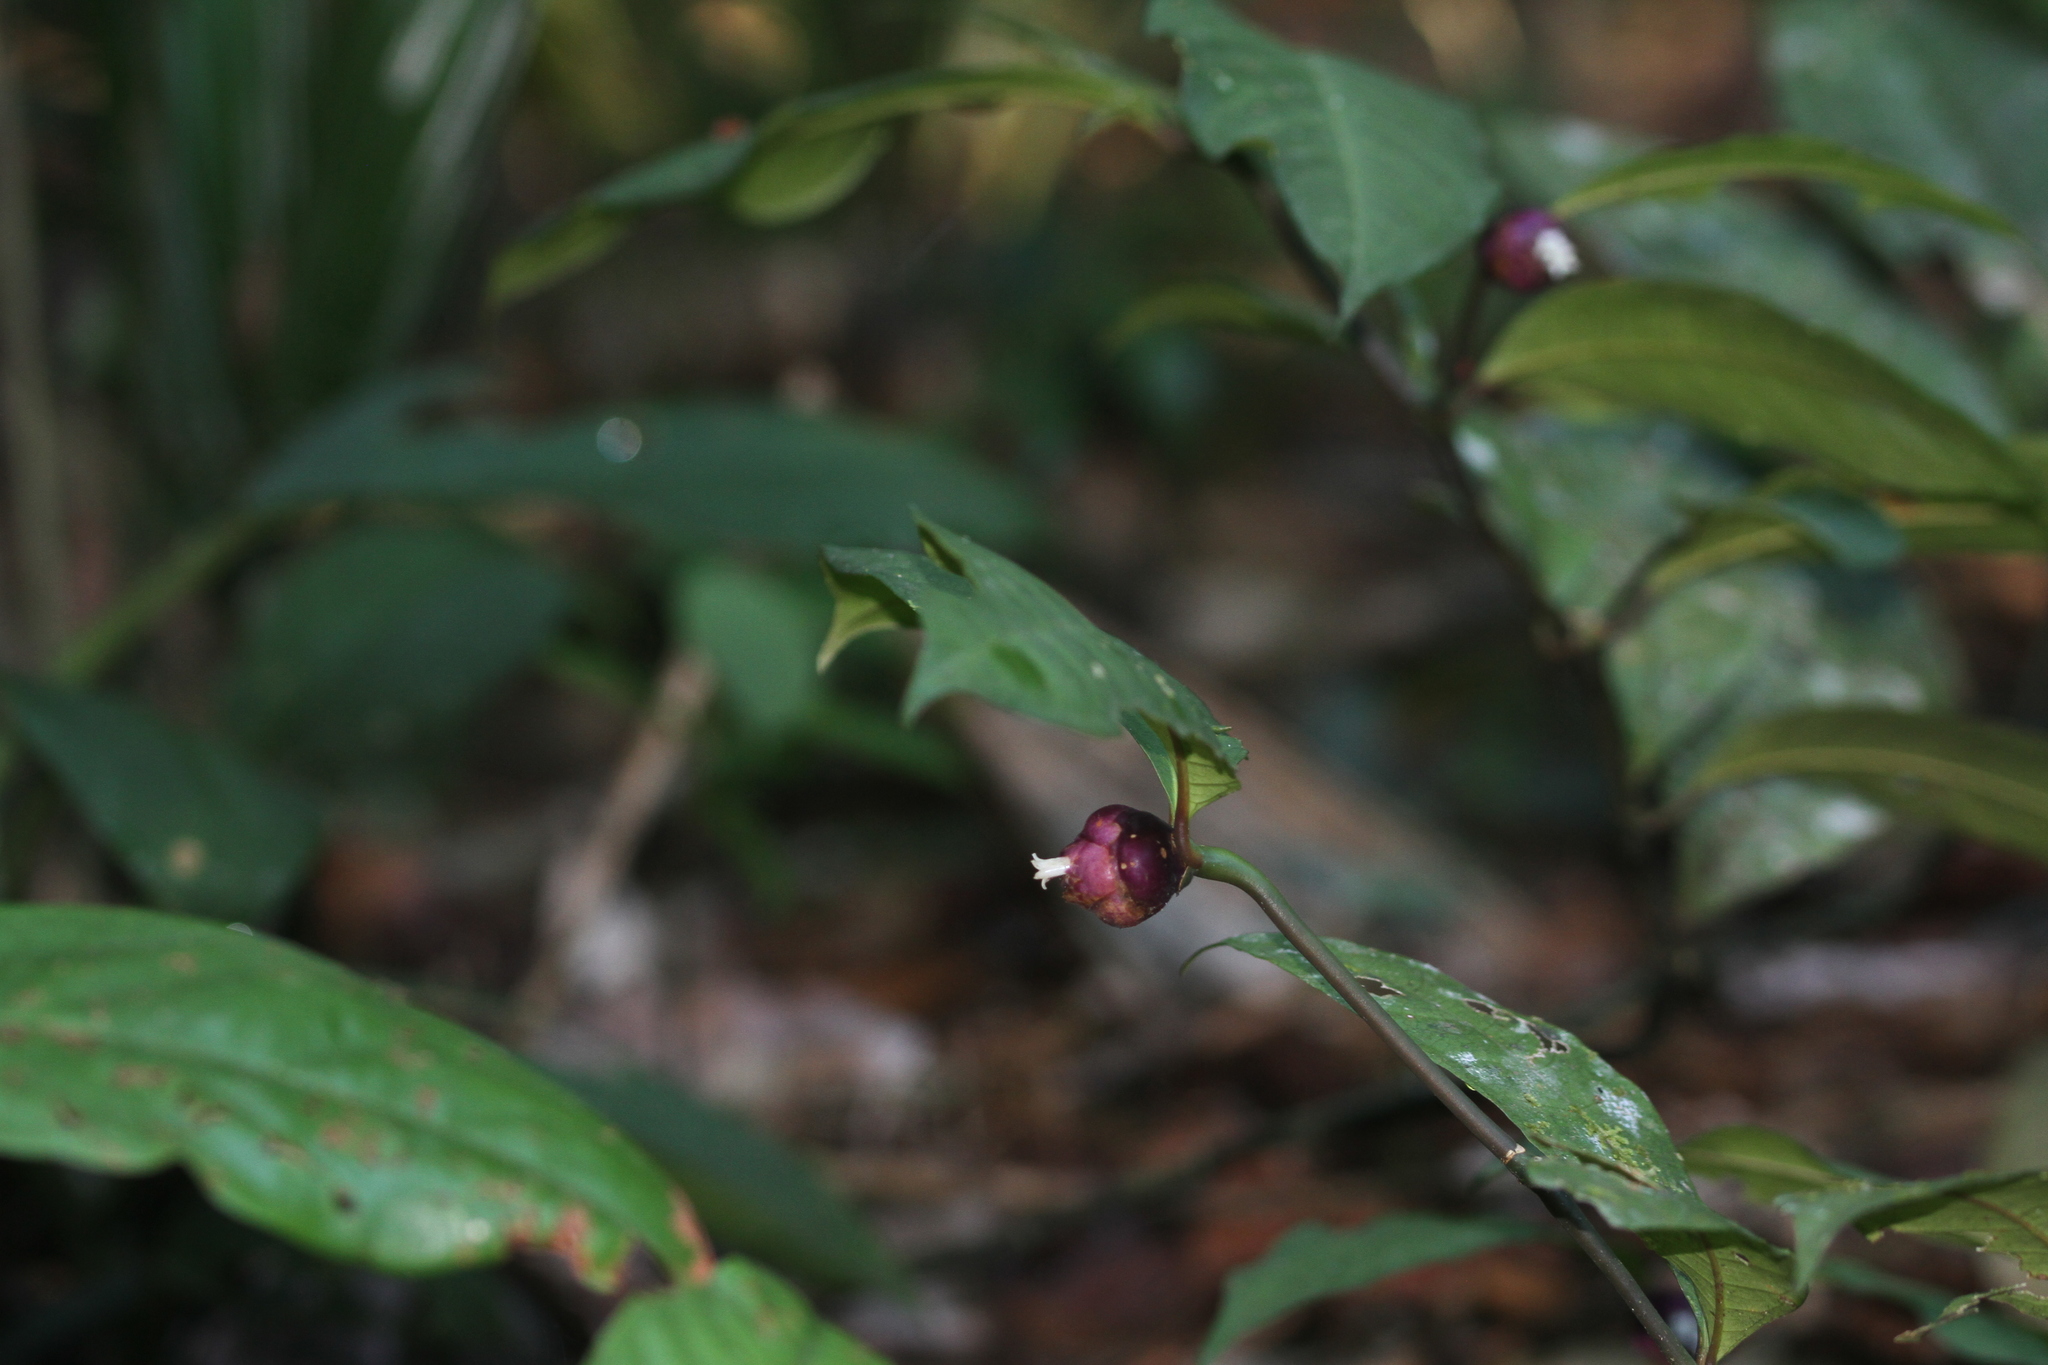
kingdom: Plantae
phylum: Tracheophyta
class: Magnoliopsida
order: Gentianales
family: Rubiaceae
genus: Palicourea
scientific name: Palicourea apoda
